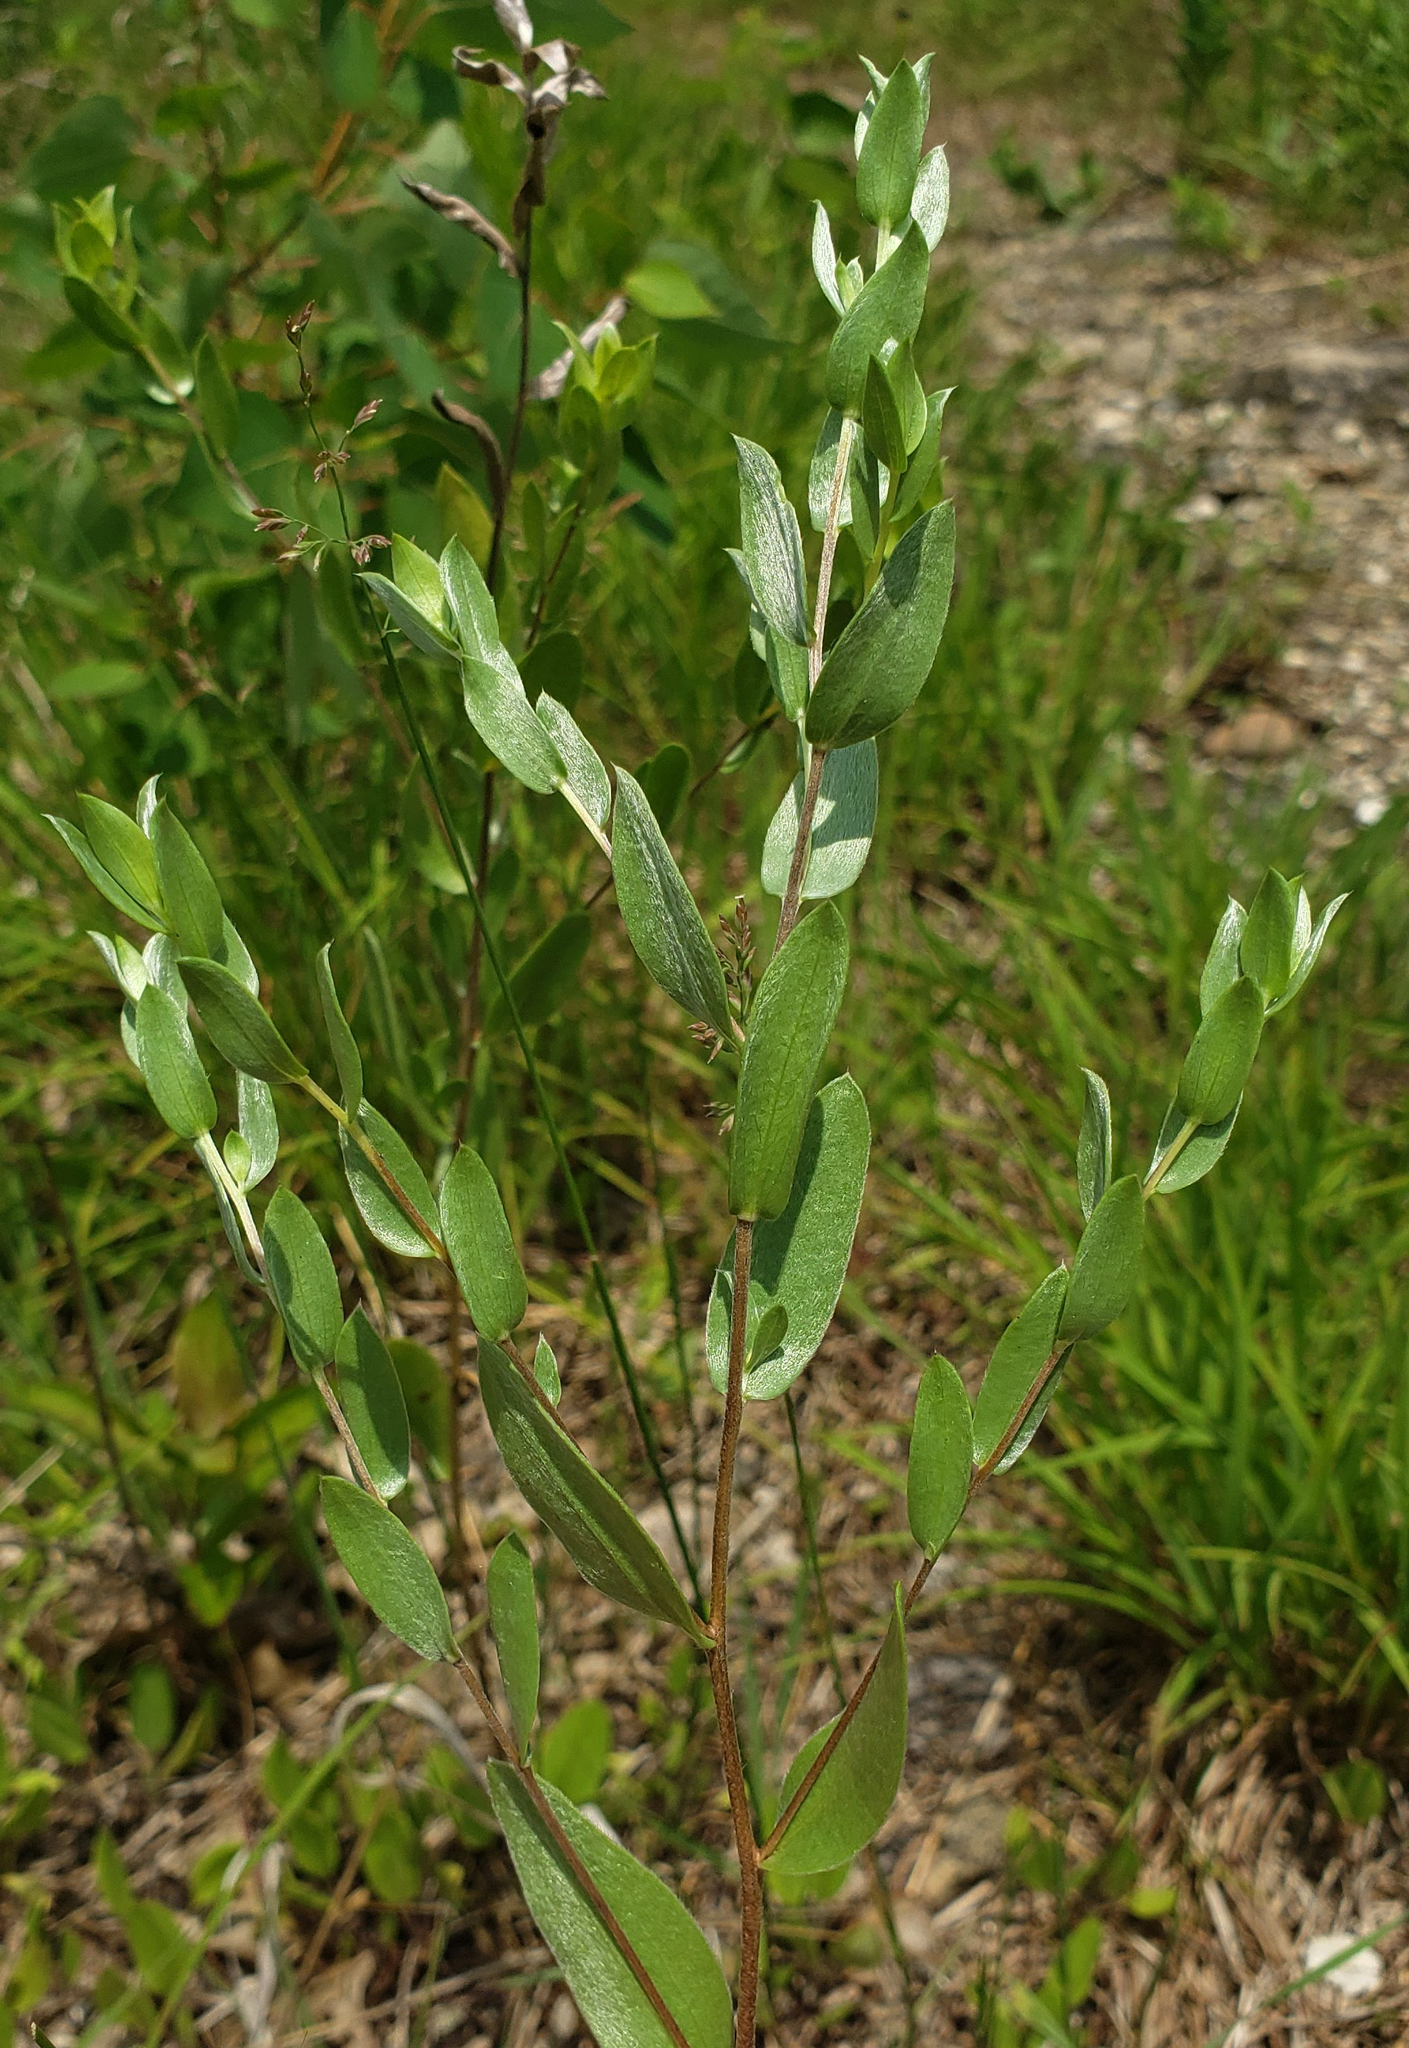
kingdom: Plantae
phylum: Tracheophyta
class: Magnoliopsida
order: Asterales
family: Asteraceae
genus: Symphyotrichum
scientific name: Symphyotrichum sericeum
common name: Silky aster
